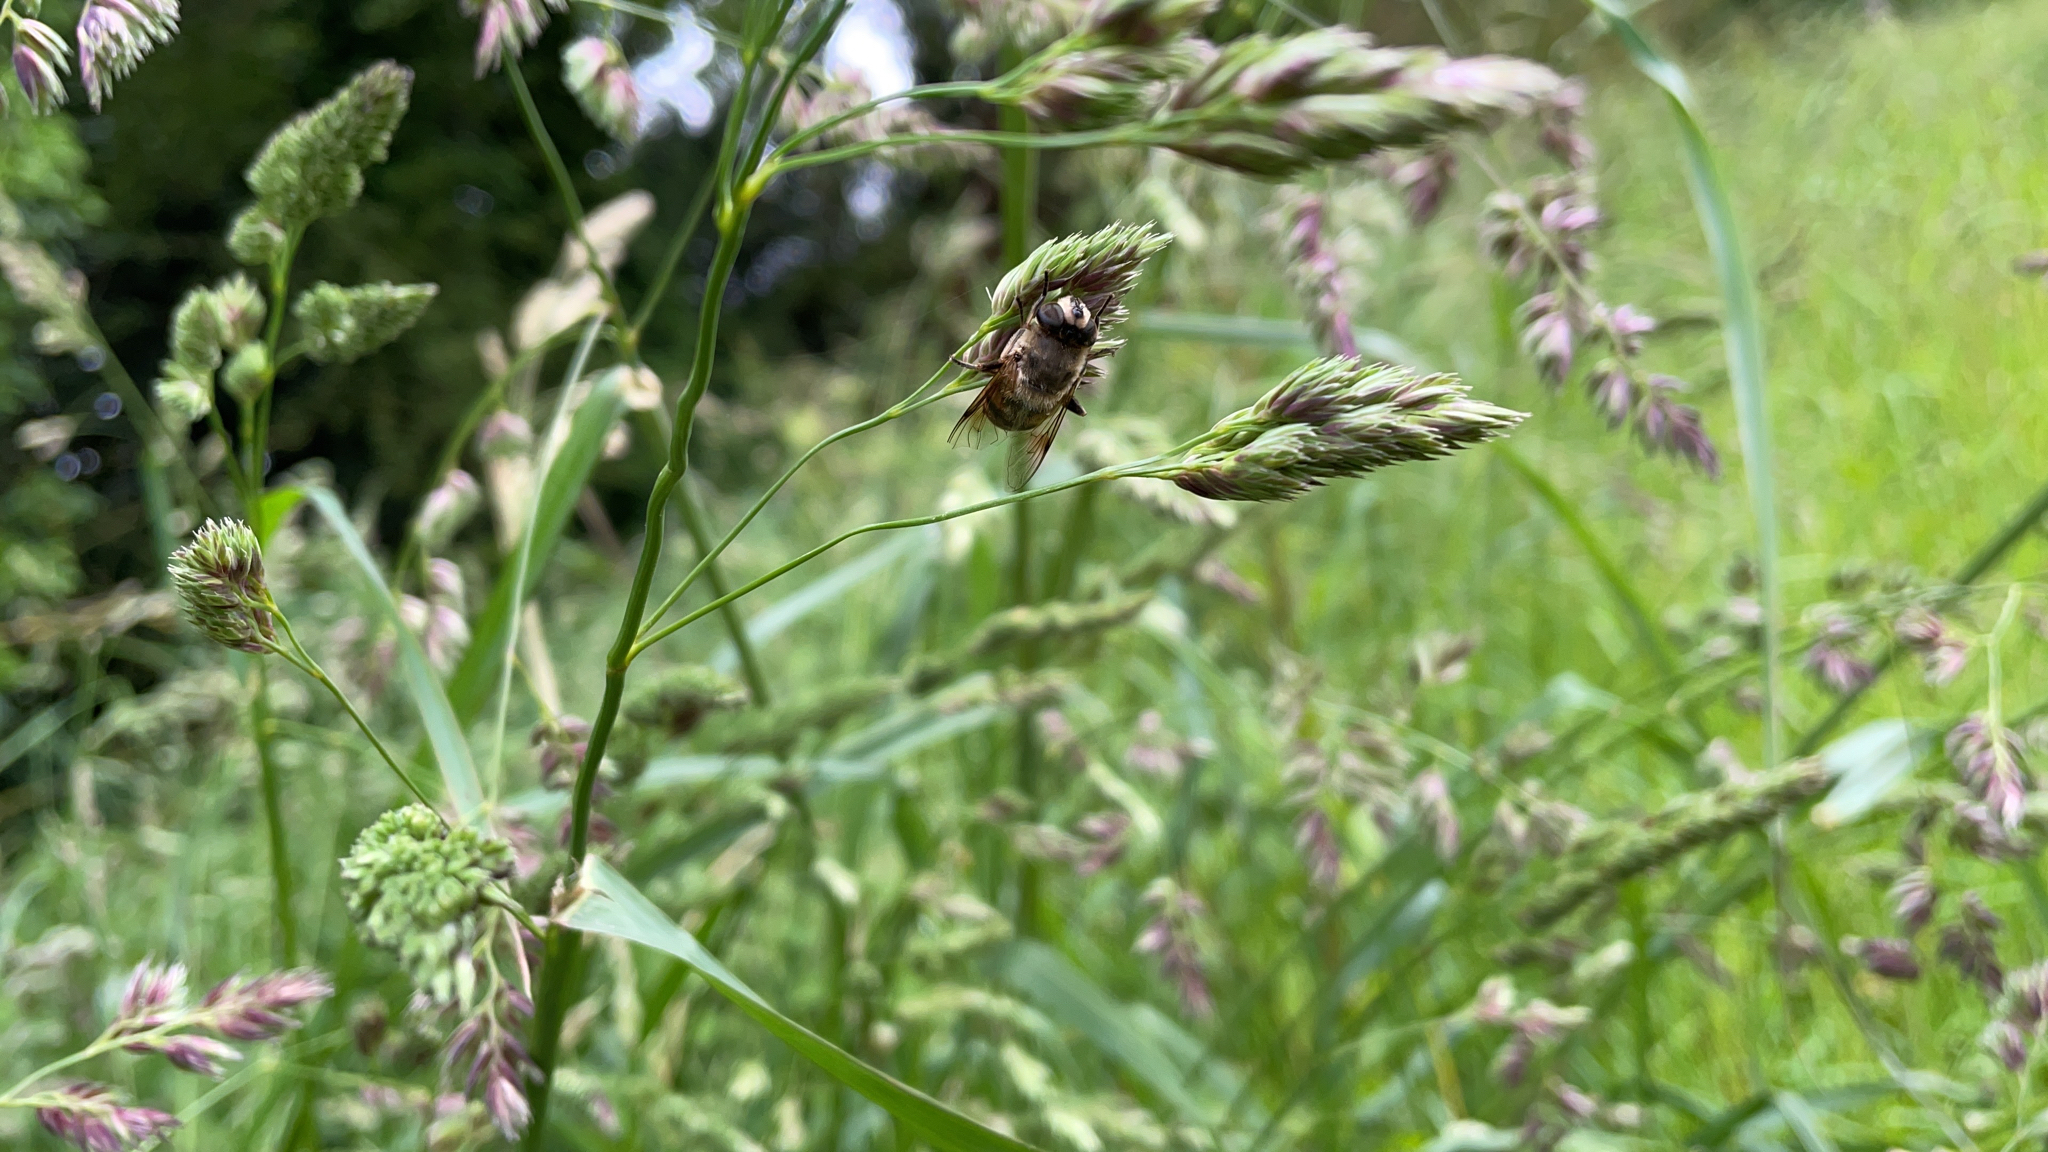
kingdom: Animalia
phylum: Arthropoda
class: Insecta
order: Diptera
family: Syrphidae
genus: Eristalis
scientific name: Eristalis tenax
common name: Drone fly
